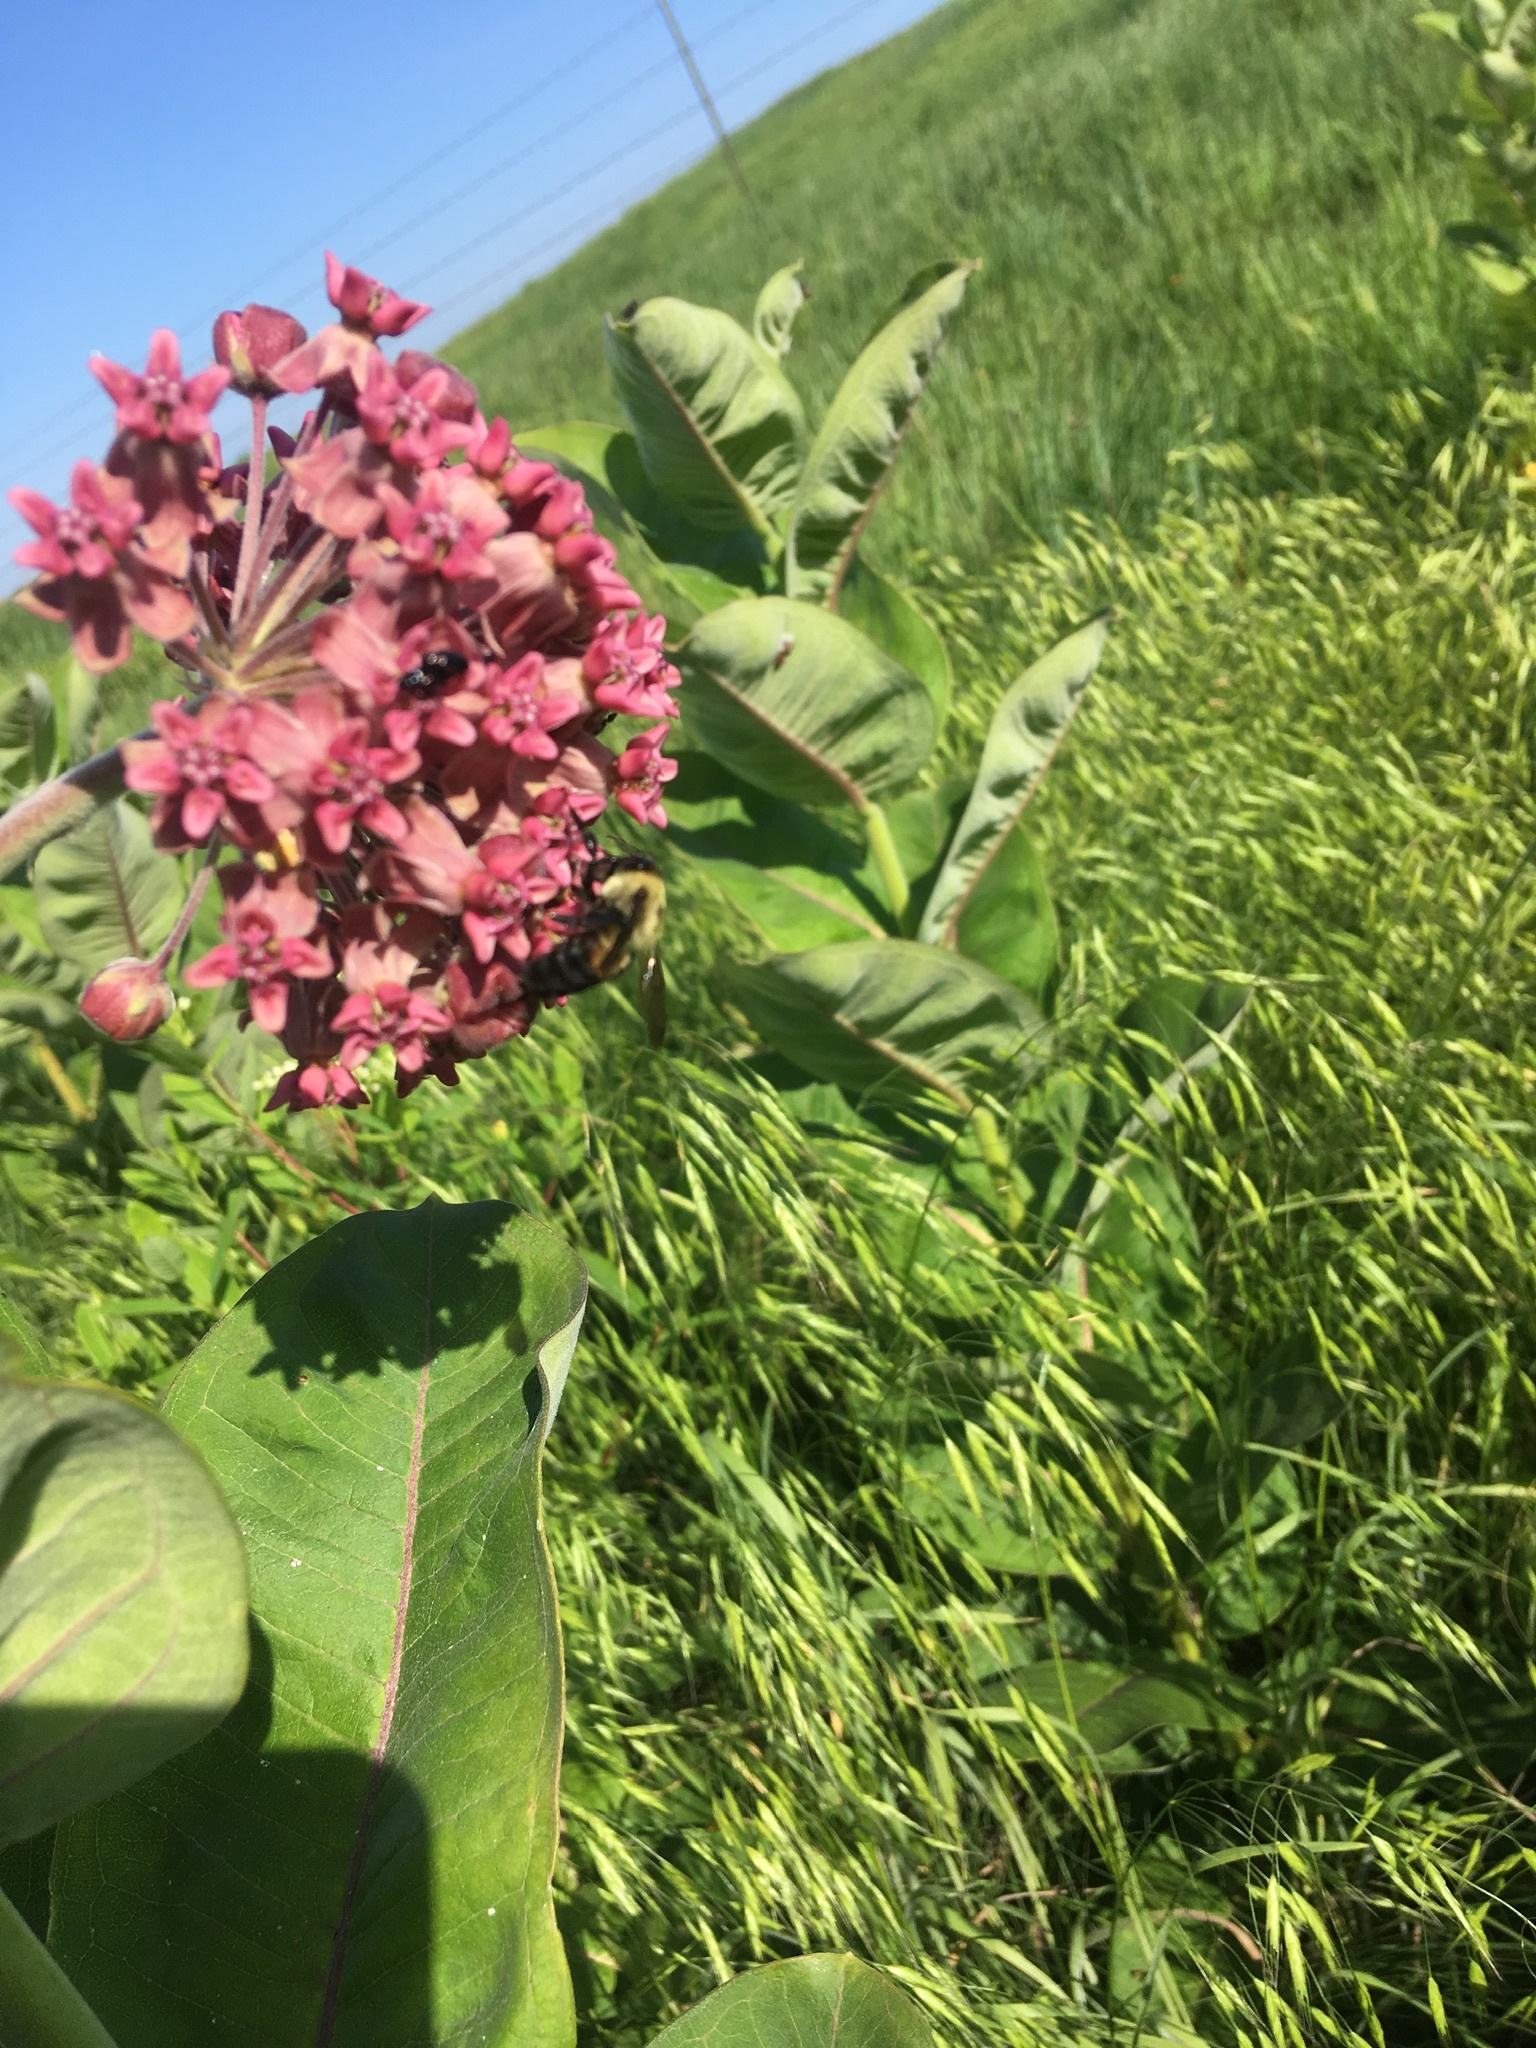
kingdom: Animalia
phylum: Arthropoda
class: Insecta
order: Hymenoptera
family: Apidae
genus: Bombus
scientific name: Bombus griseocollis
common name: Brown-belted bumble bee
